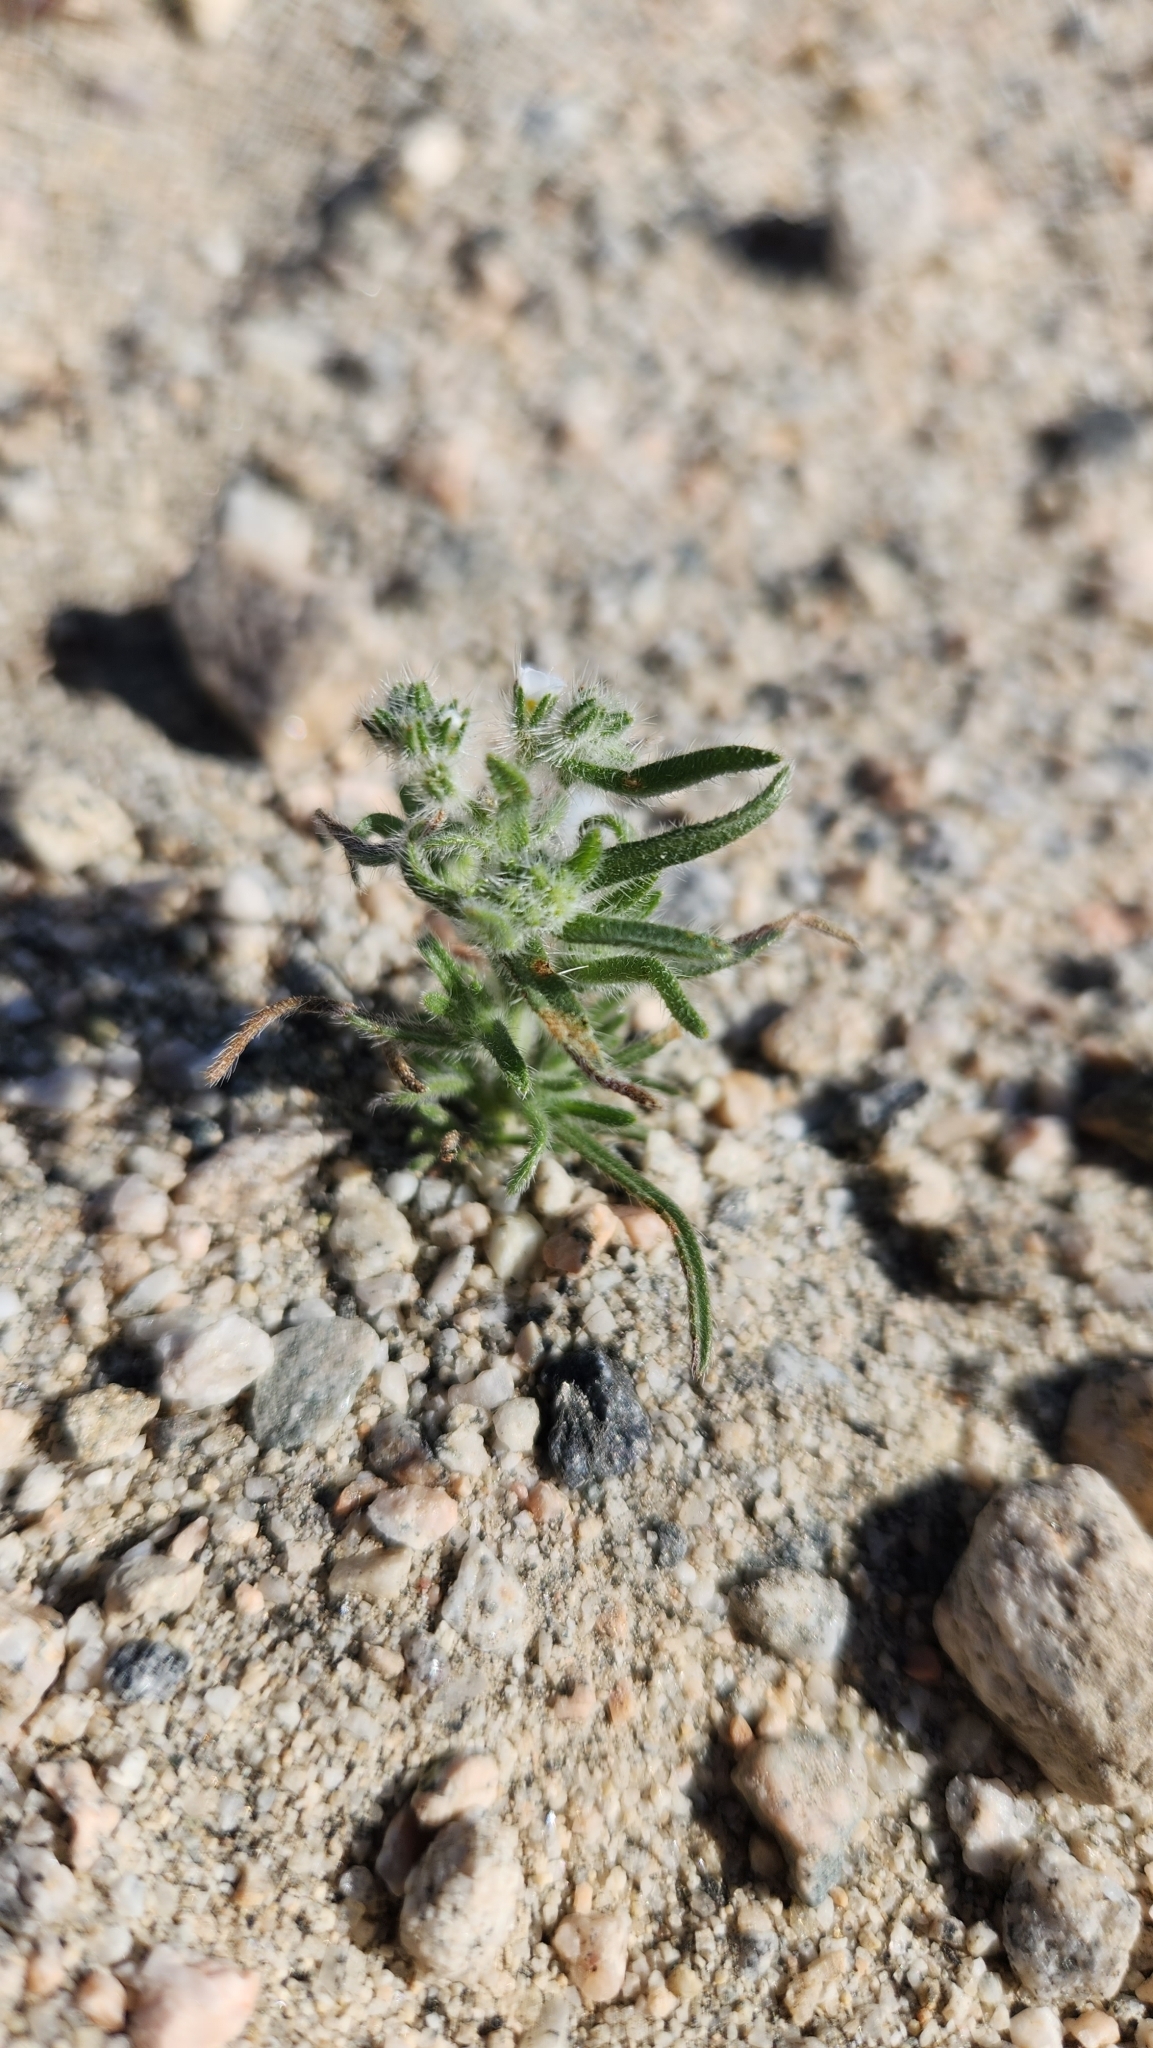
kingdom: Plantae
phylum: Tracheophyta
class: Magnoliopsida
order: Boraginales
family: Boraginaceae
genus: Johnstonella
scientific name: Johnstonella angustifolia
